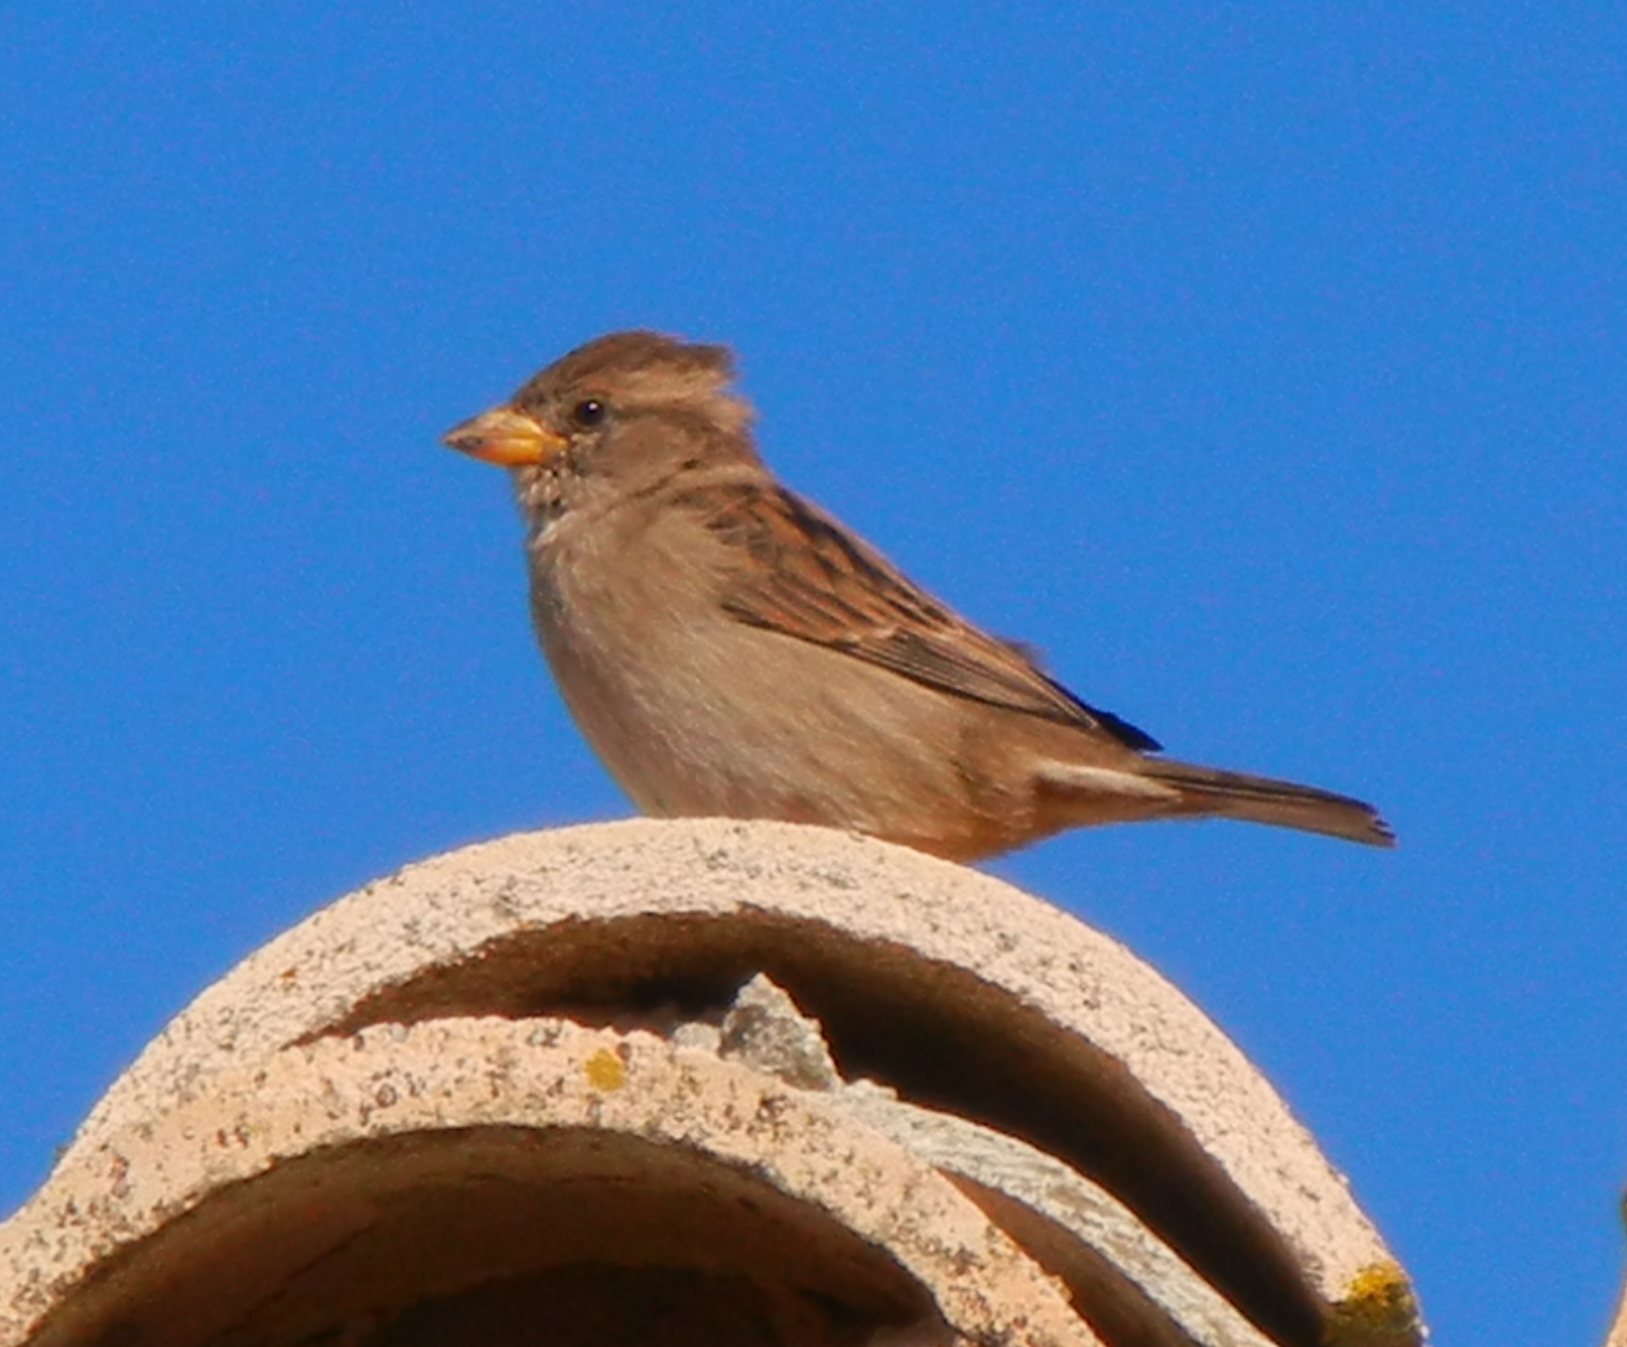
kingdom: Animalia
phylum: Chordata
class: Aves
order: Passeriformes
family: Passeridae
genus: Passer
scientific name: Passer domesticus
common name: House sparrow
